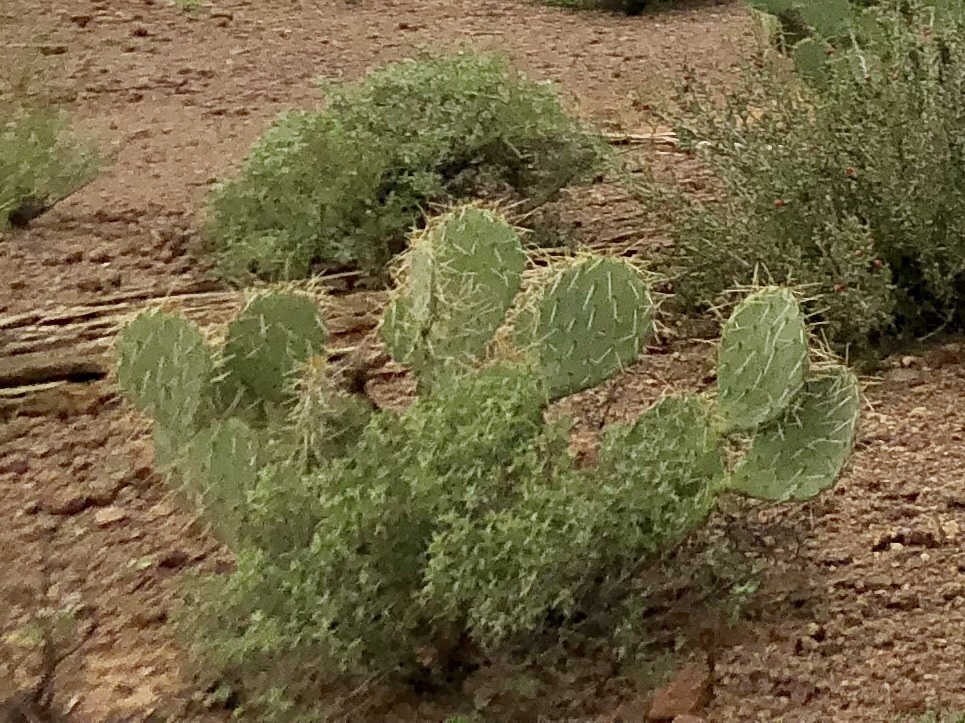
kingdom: Plantae
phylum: Tracheophyta
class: Magnoliopsida
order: Caryophyllales
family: Cactaceae
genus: Opuntia
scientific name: Opuntia engelmannii
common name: Cactus-apple
